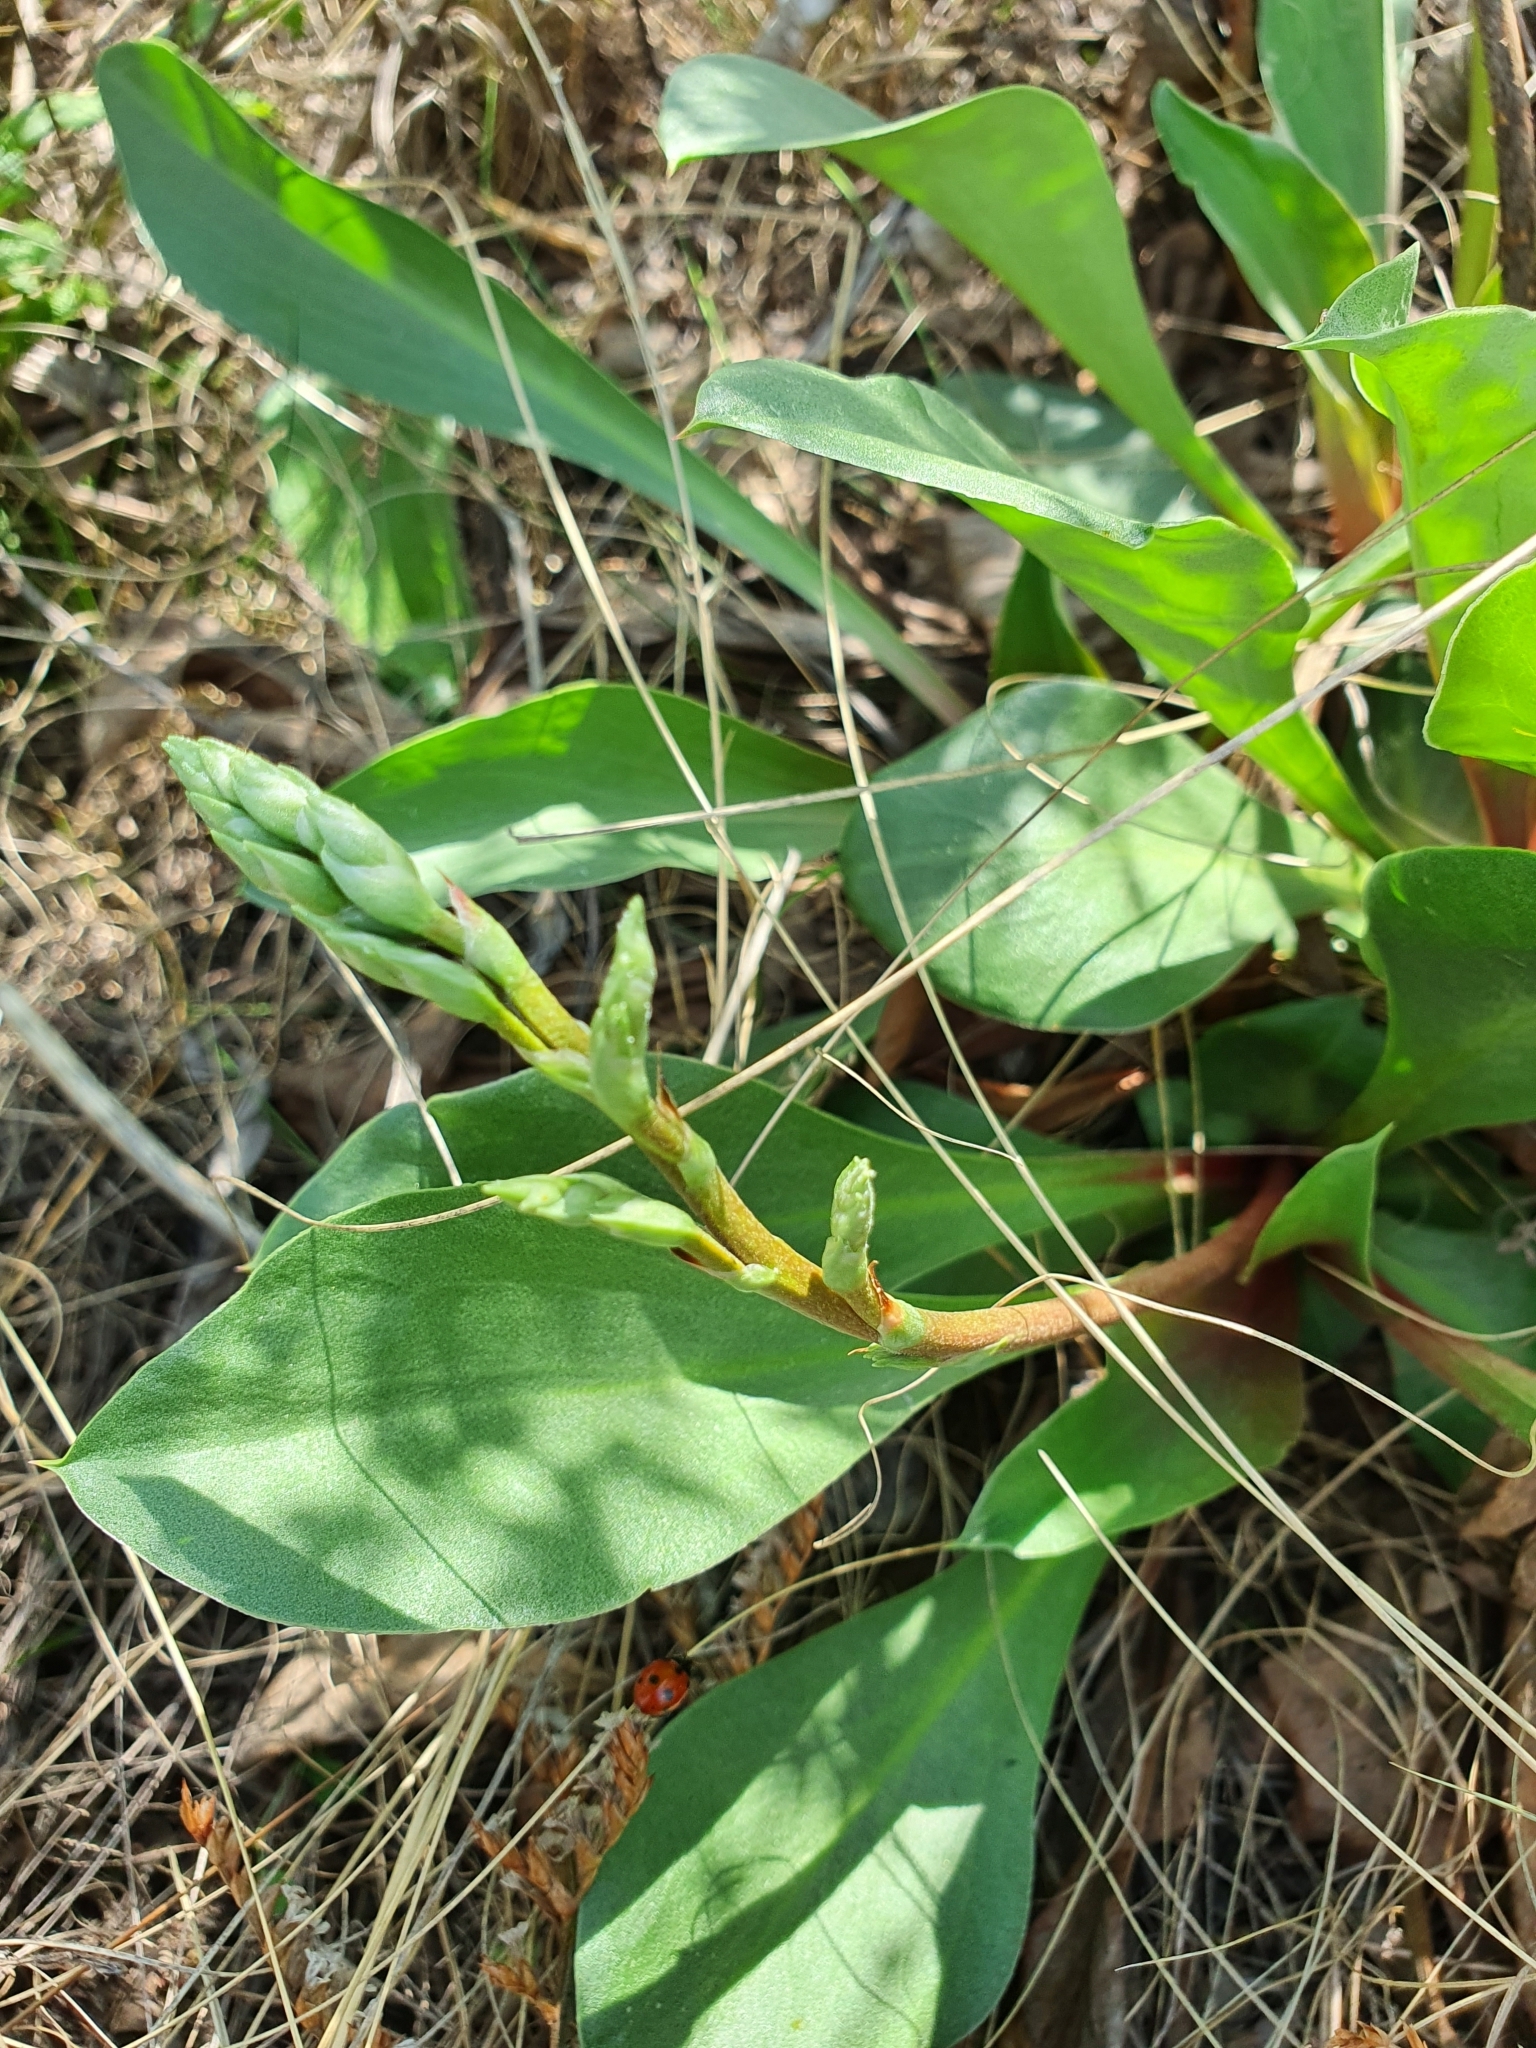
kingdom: Plantae
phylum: Tracheophyta
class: Magnoliopsida
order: Caryophyllales
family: Plumbaginaceae
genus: Goniolimon
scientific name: Goniolimon elatum
